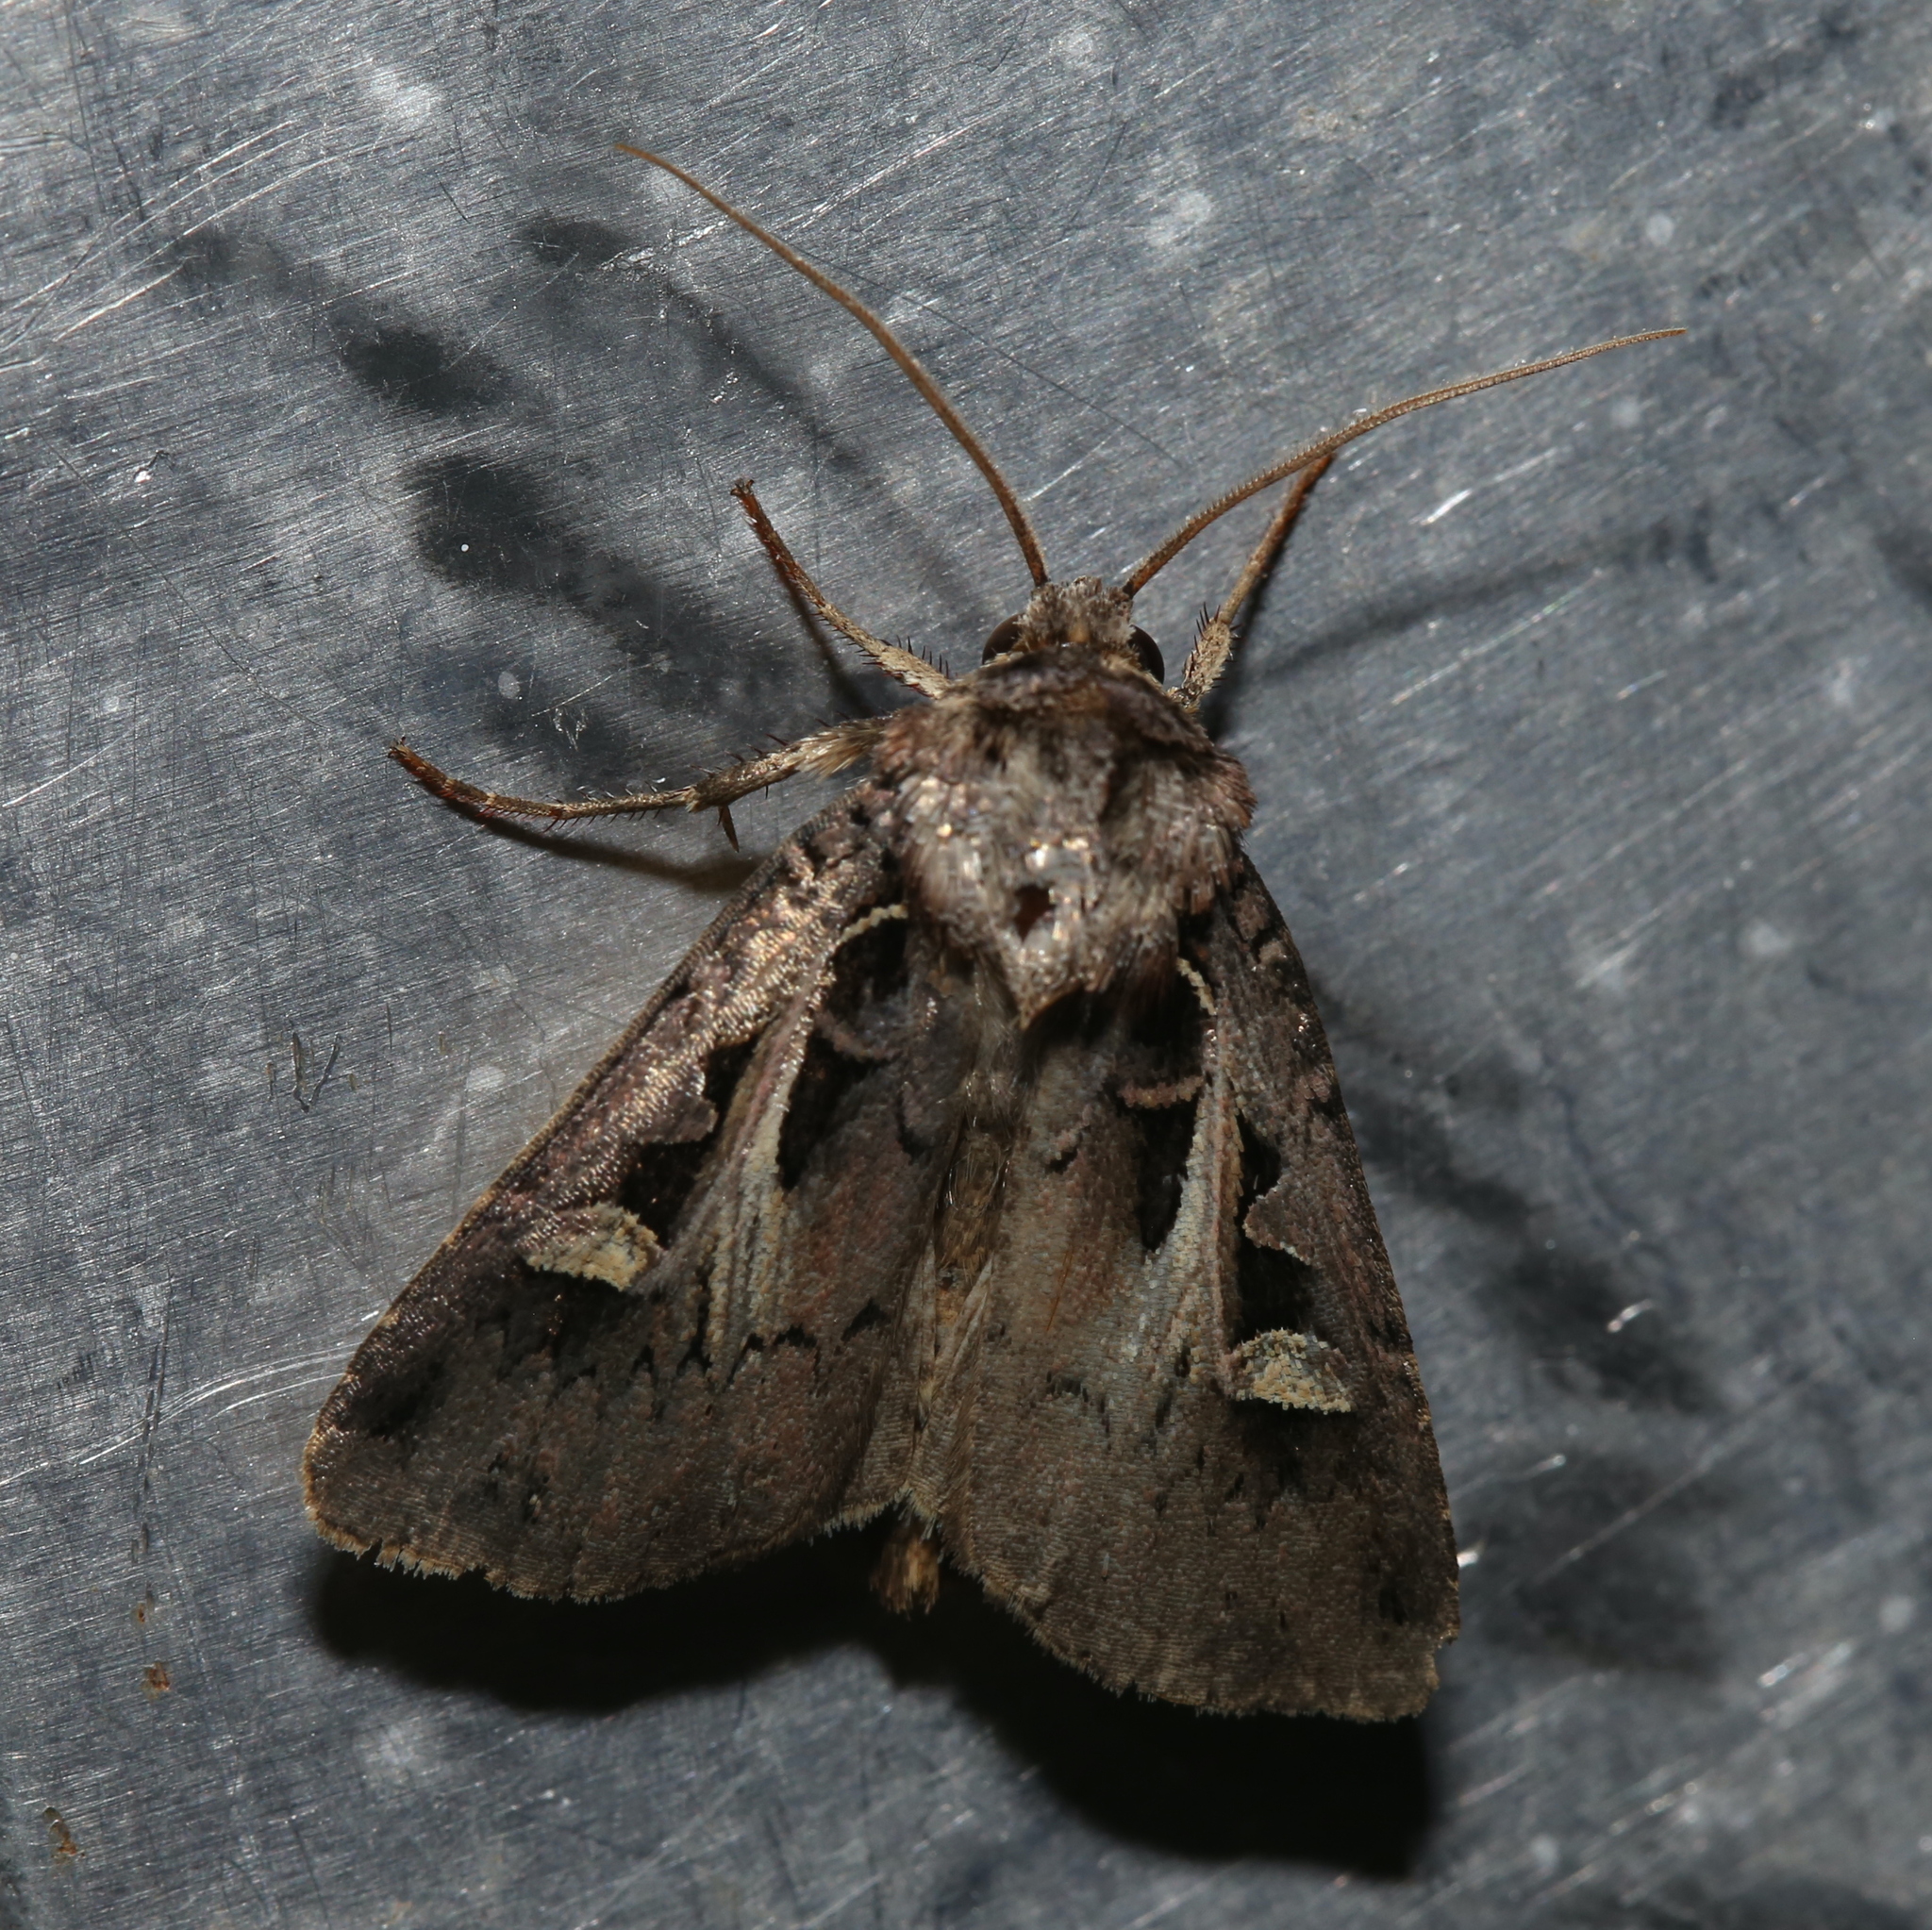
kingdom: Animalia
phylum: Arthropoda
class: Insecta
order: Lepidoptera
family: Noctuidae
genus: Feltia
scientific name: Feltia herilis
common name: Master's dart
